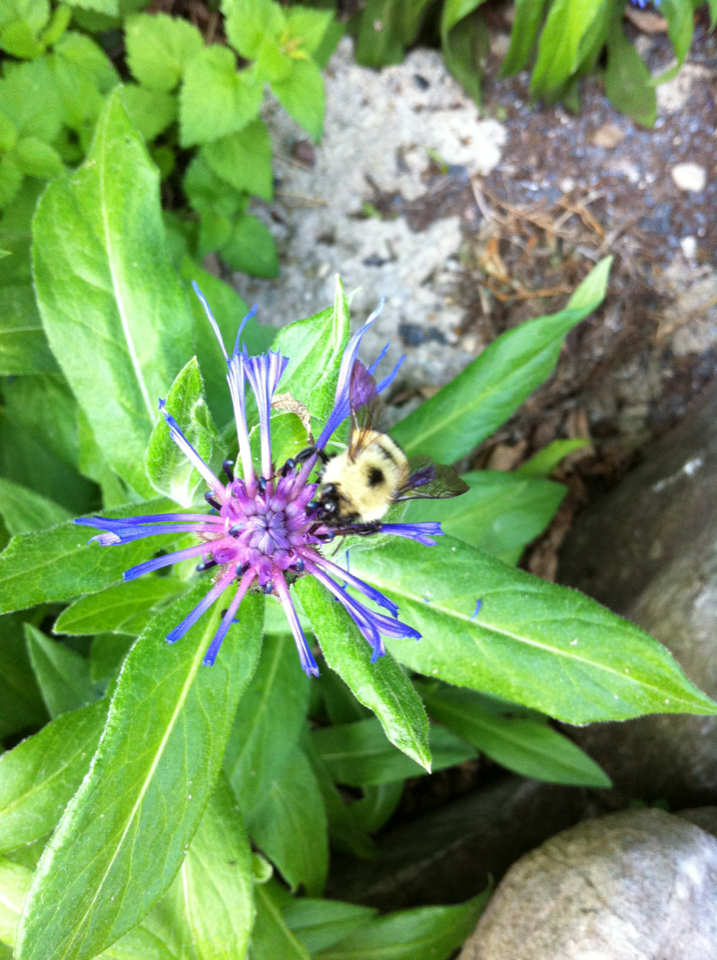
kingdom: Animalia
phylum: Arthropoda
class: Insecta
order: Hymenoptera
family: Apidae
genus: Pyrobombus
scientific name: Pyrobombus
